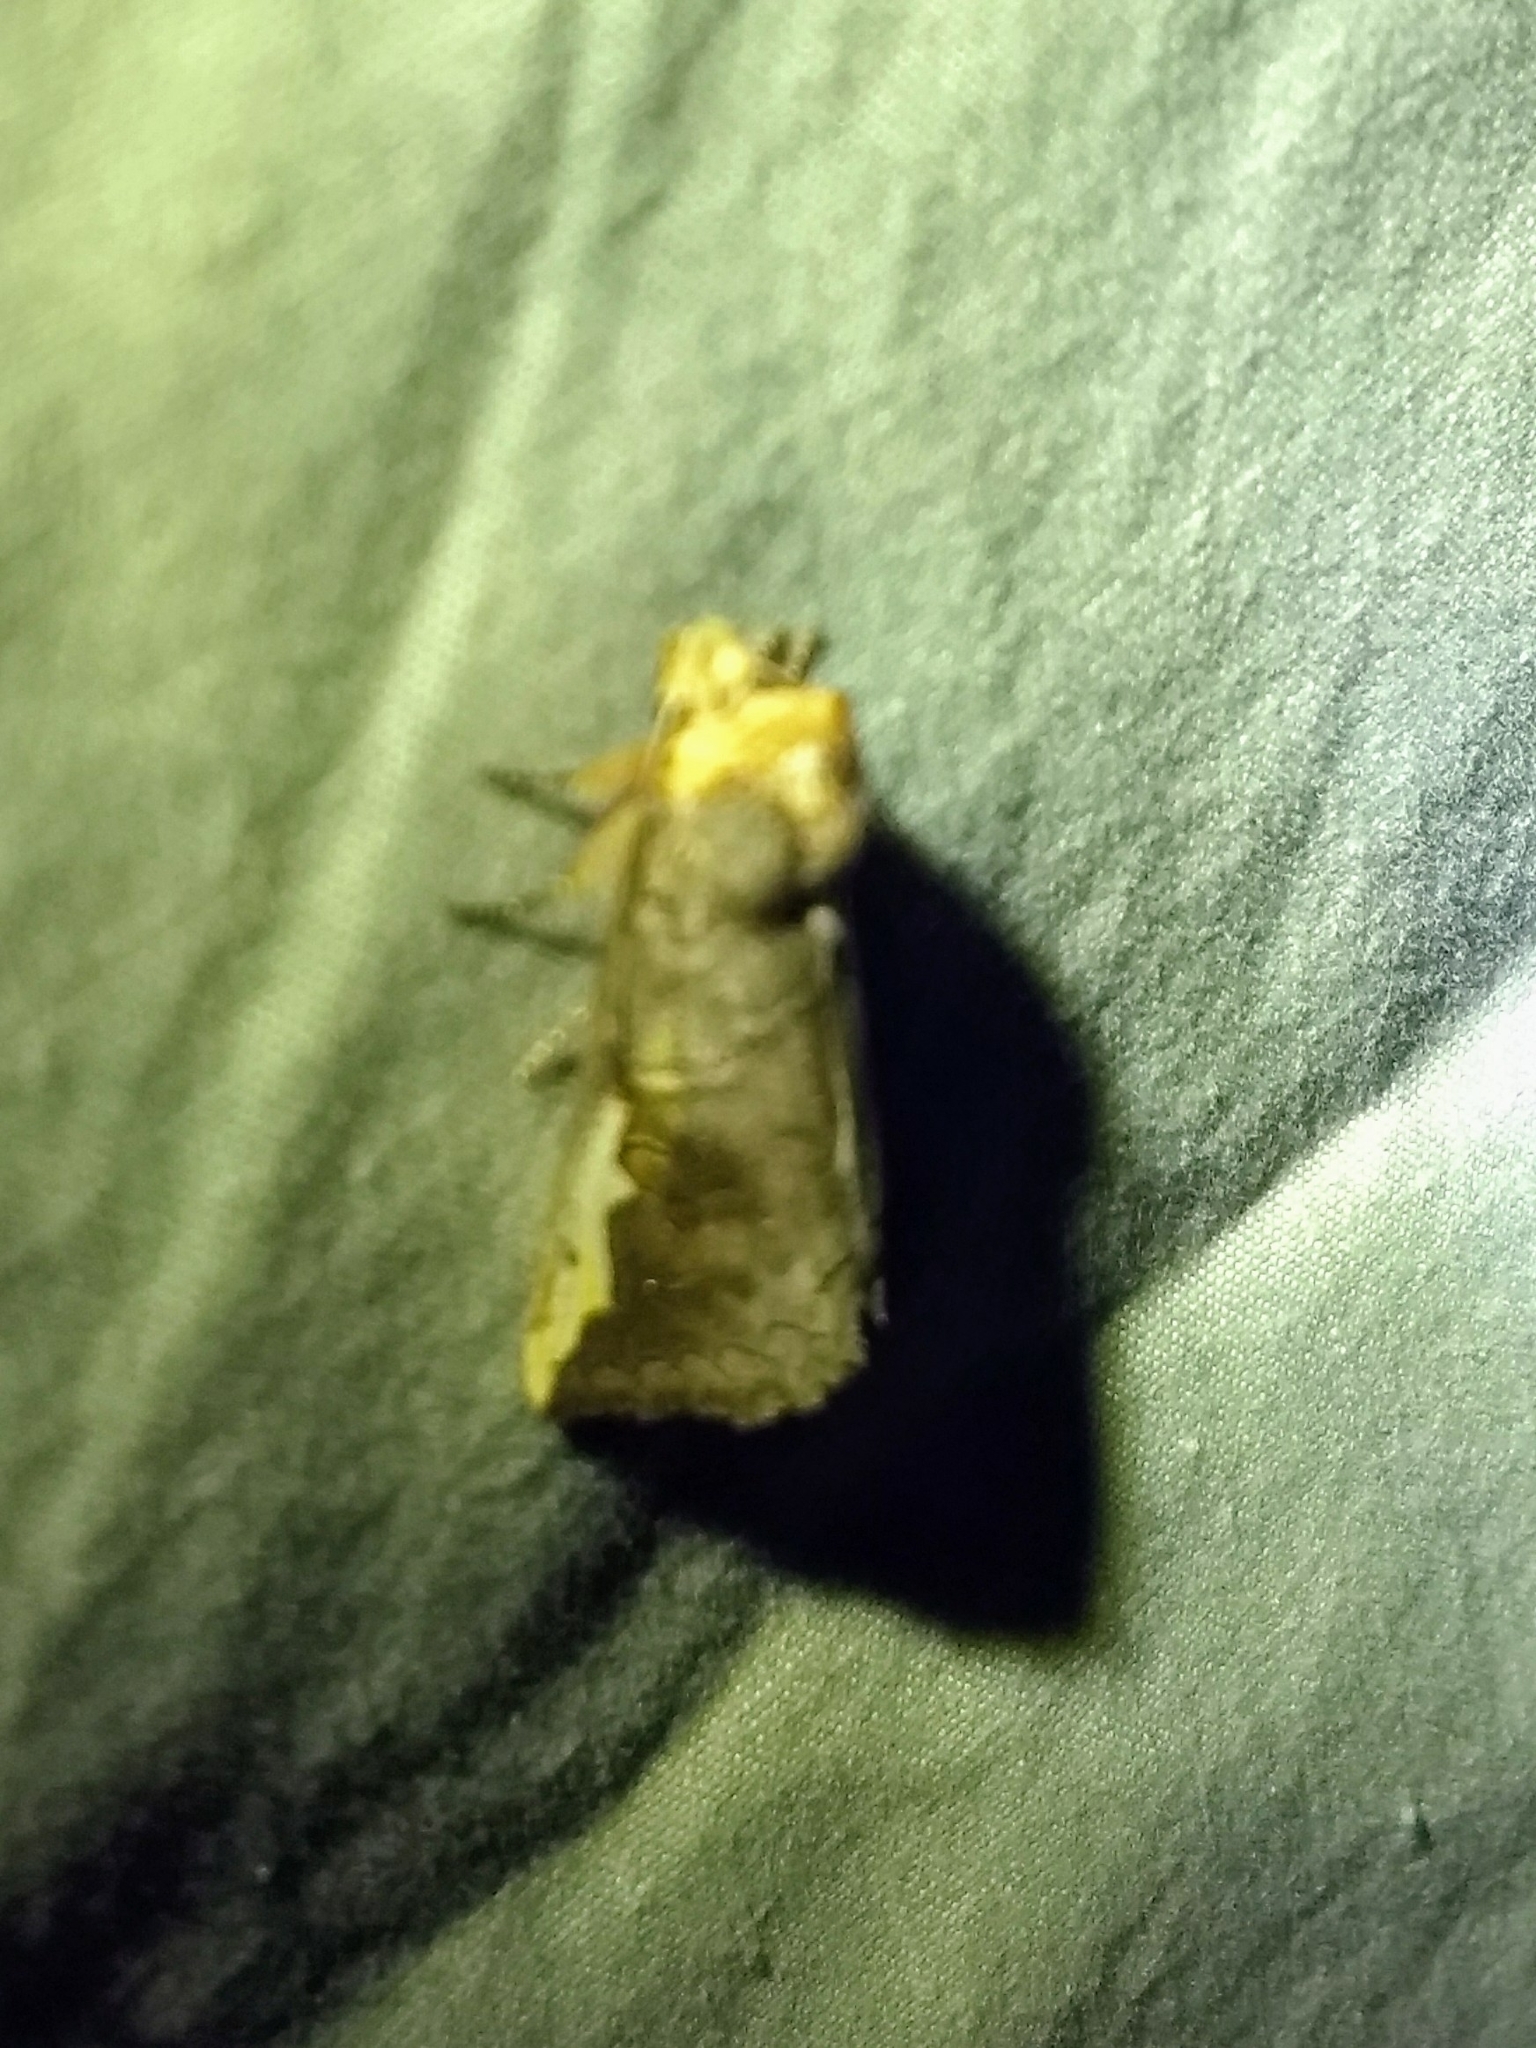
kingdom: Animalia
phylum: Arthropoda
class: Insecta
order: Lepidoptera
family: Notodontidae
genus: Symmerista
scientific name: Symmerista
